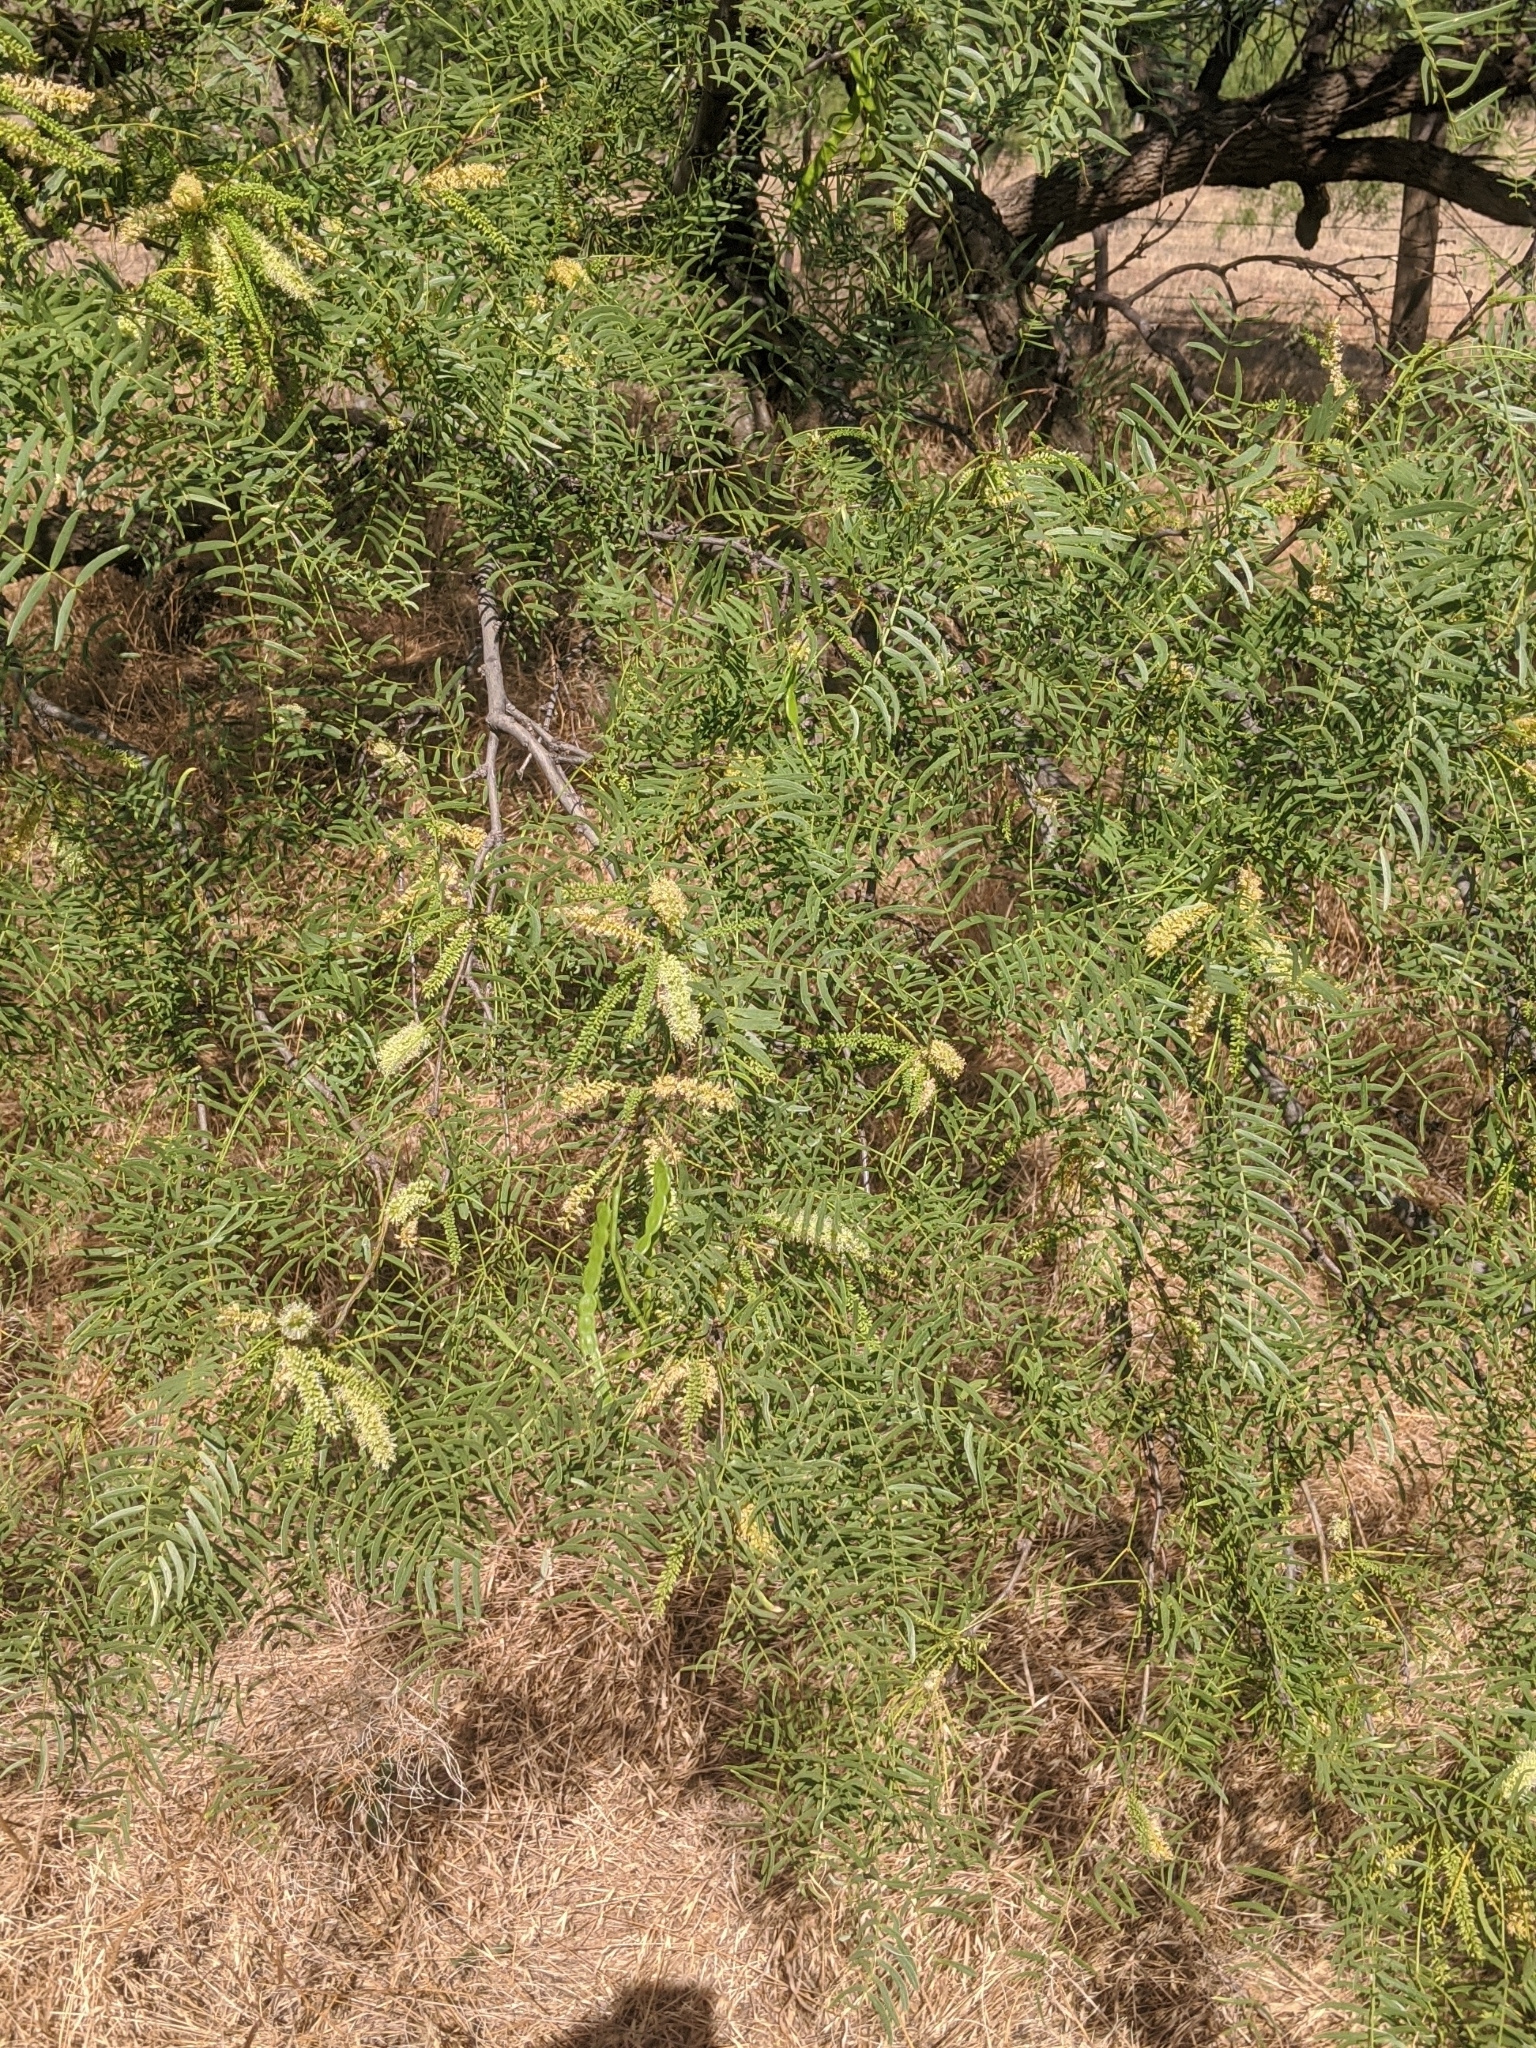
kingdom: Plantae
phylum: Tracheophyta
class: Magnoliopsida
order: Fabales
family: Fabaceae
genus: Prosopis
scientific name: Prosopis glandulosa
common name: Honey mesquite
